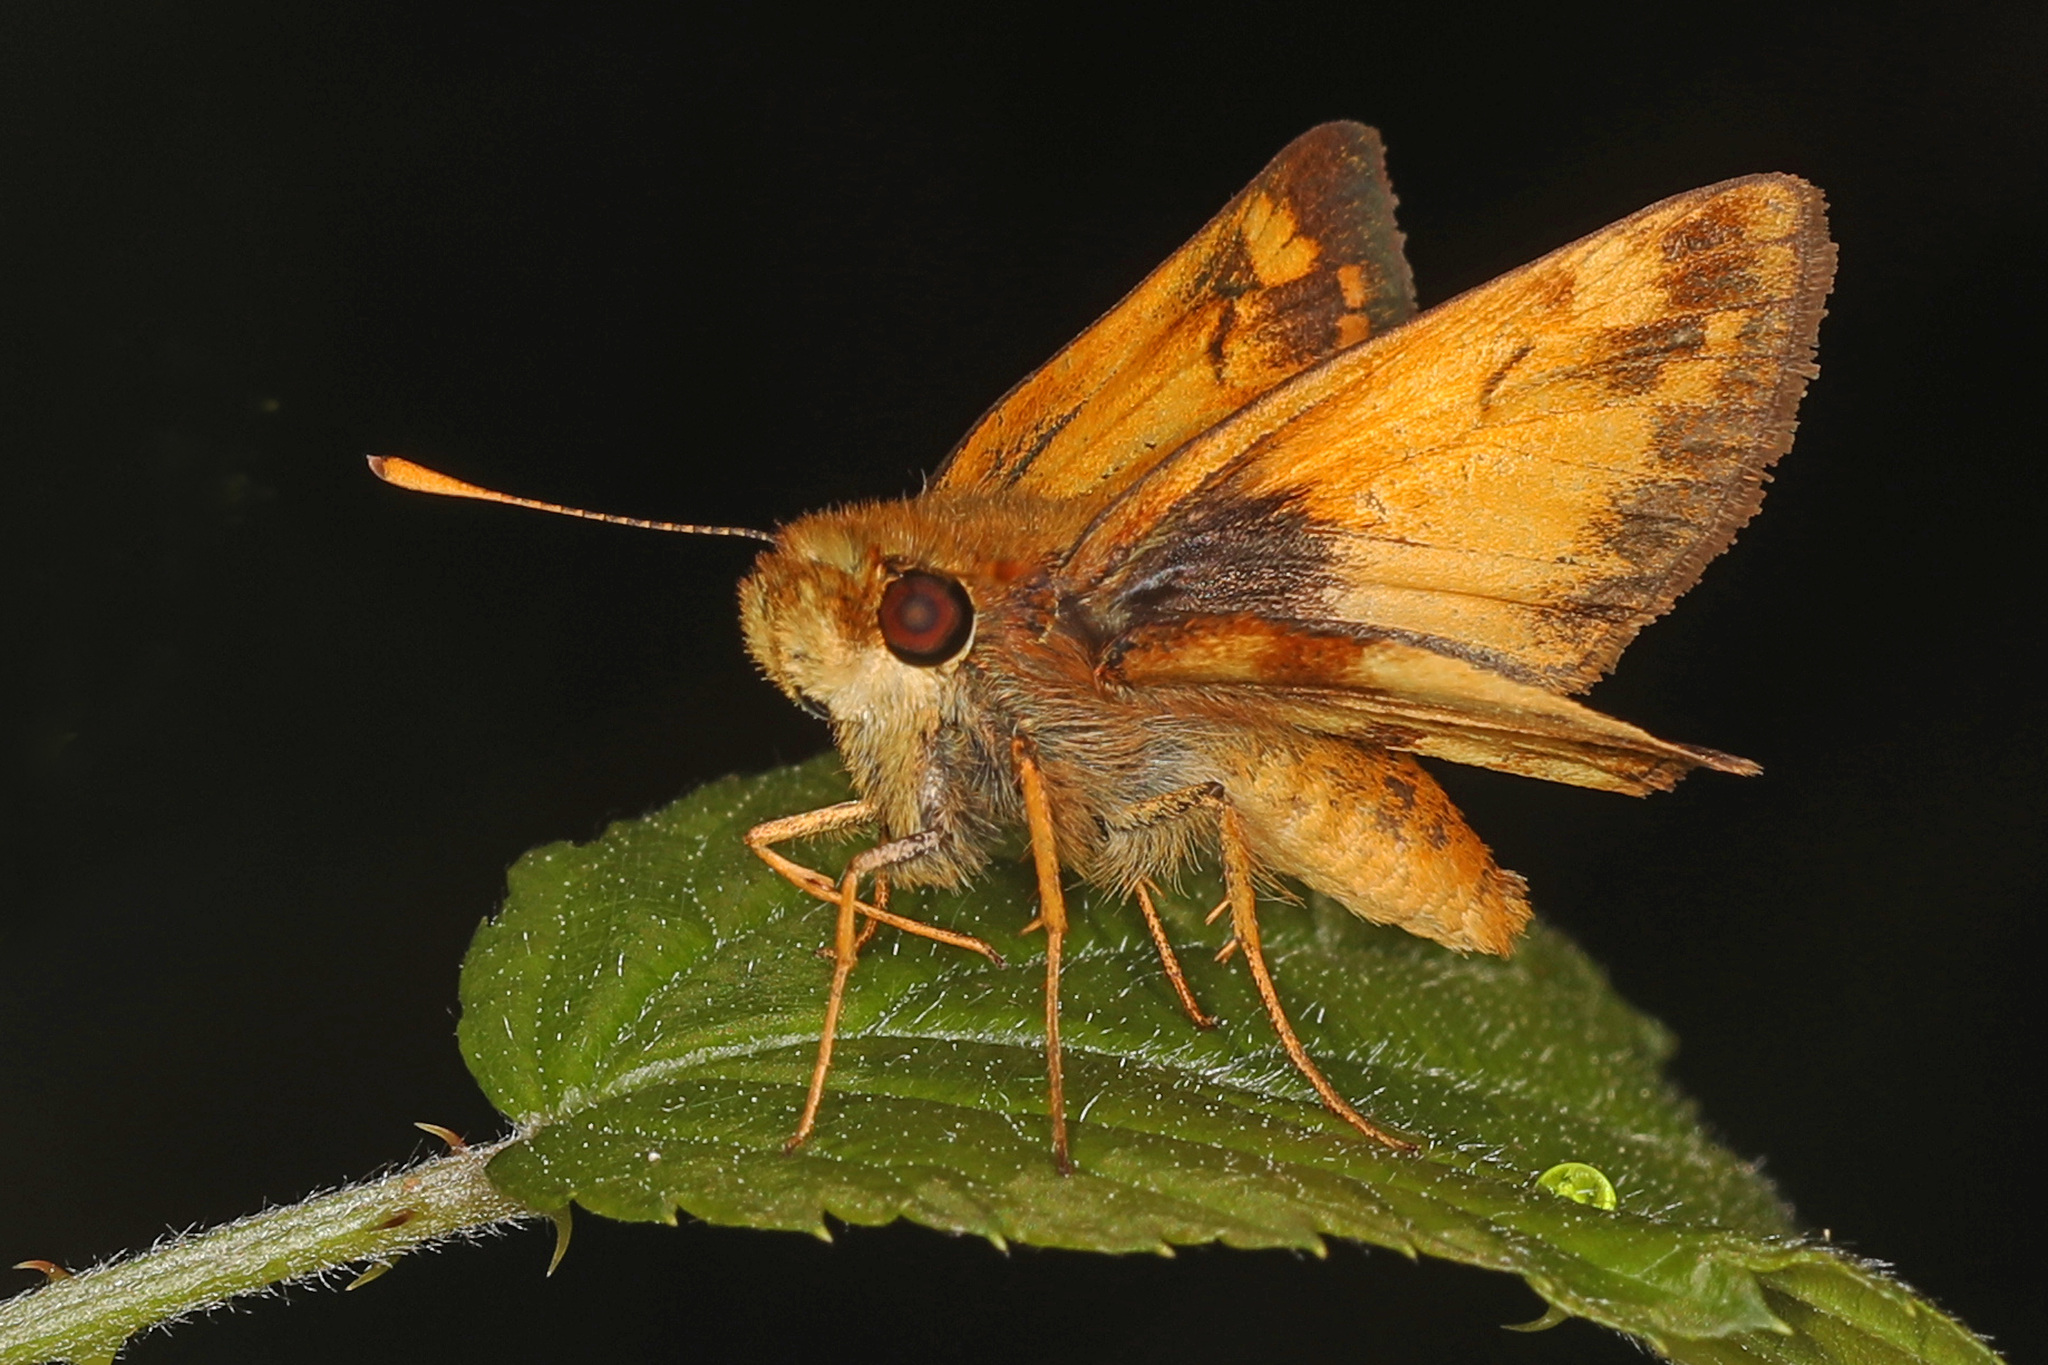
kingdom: Animalia
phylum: Arthropoda
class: Insecta
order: Lepidoptera
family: Hesperiidae
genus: Lon
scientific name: Lon zabulon
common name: Zabulon skipper
